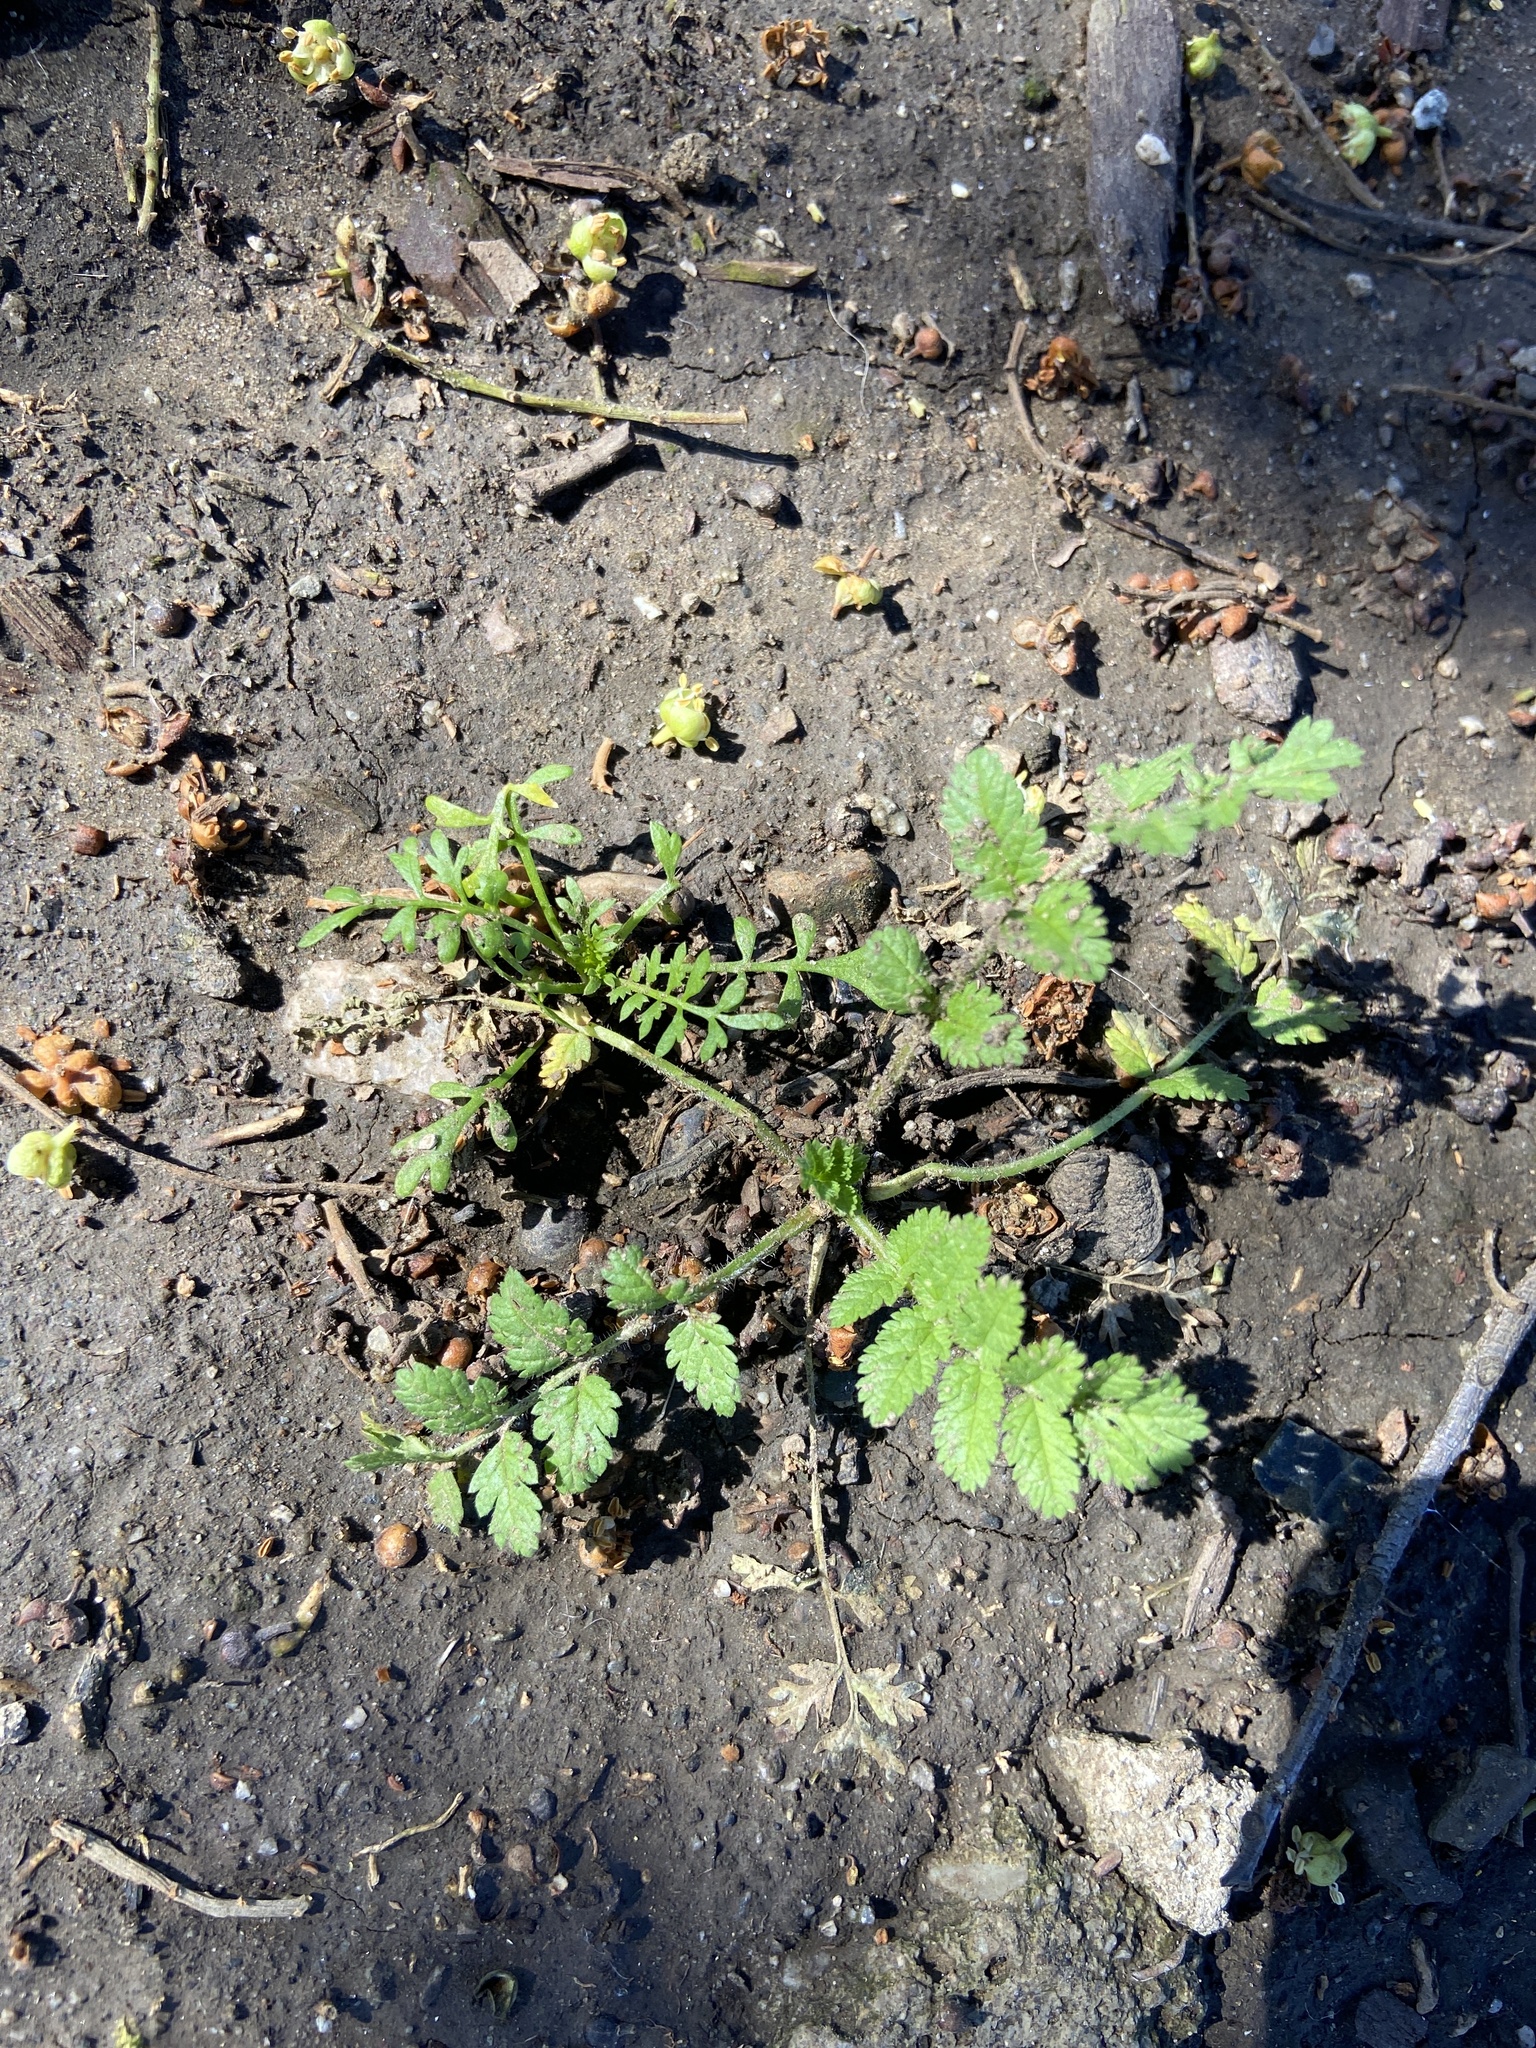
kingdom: Plantae
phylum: Tracheophyta
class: Magnoliopsida
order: Geraniales
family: Geraniaceae
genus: Erodium
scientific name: Erodium moschatum
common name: Musk stork's-bill
